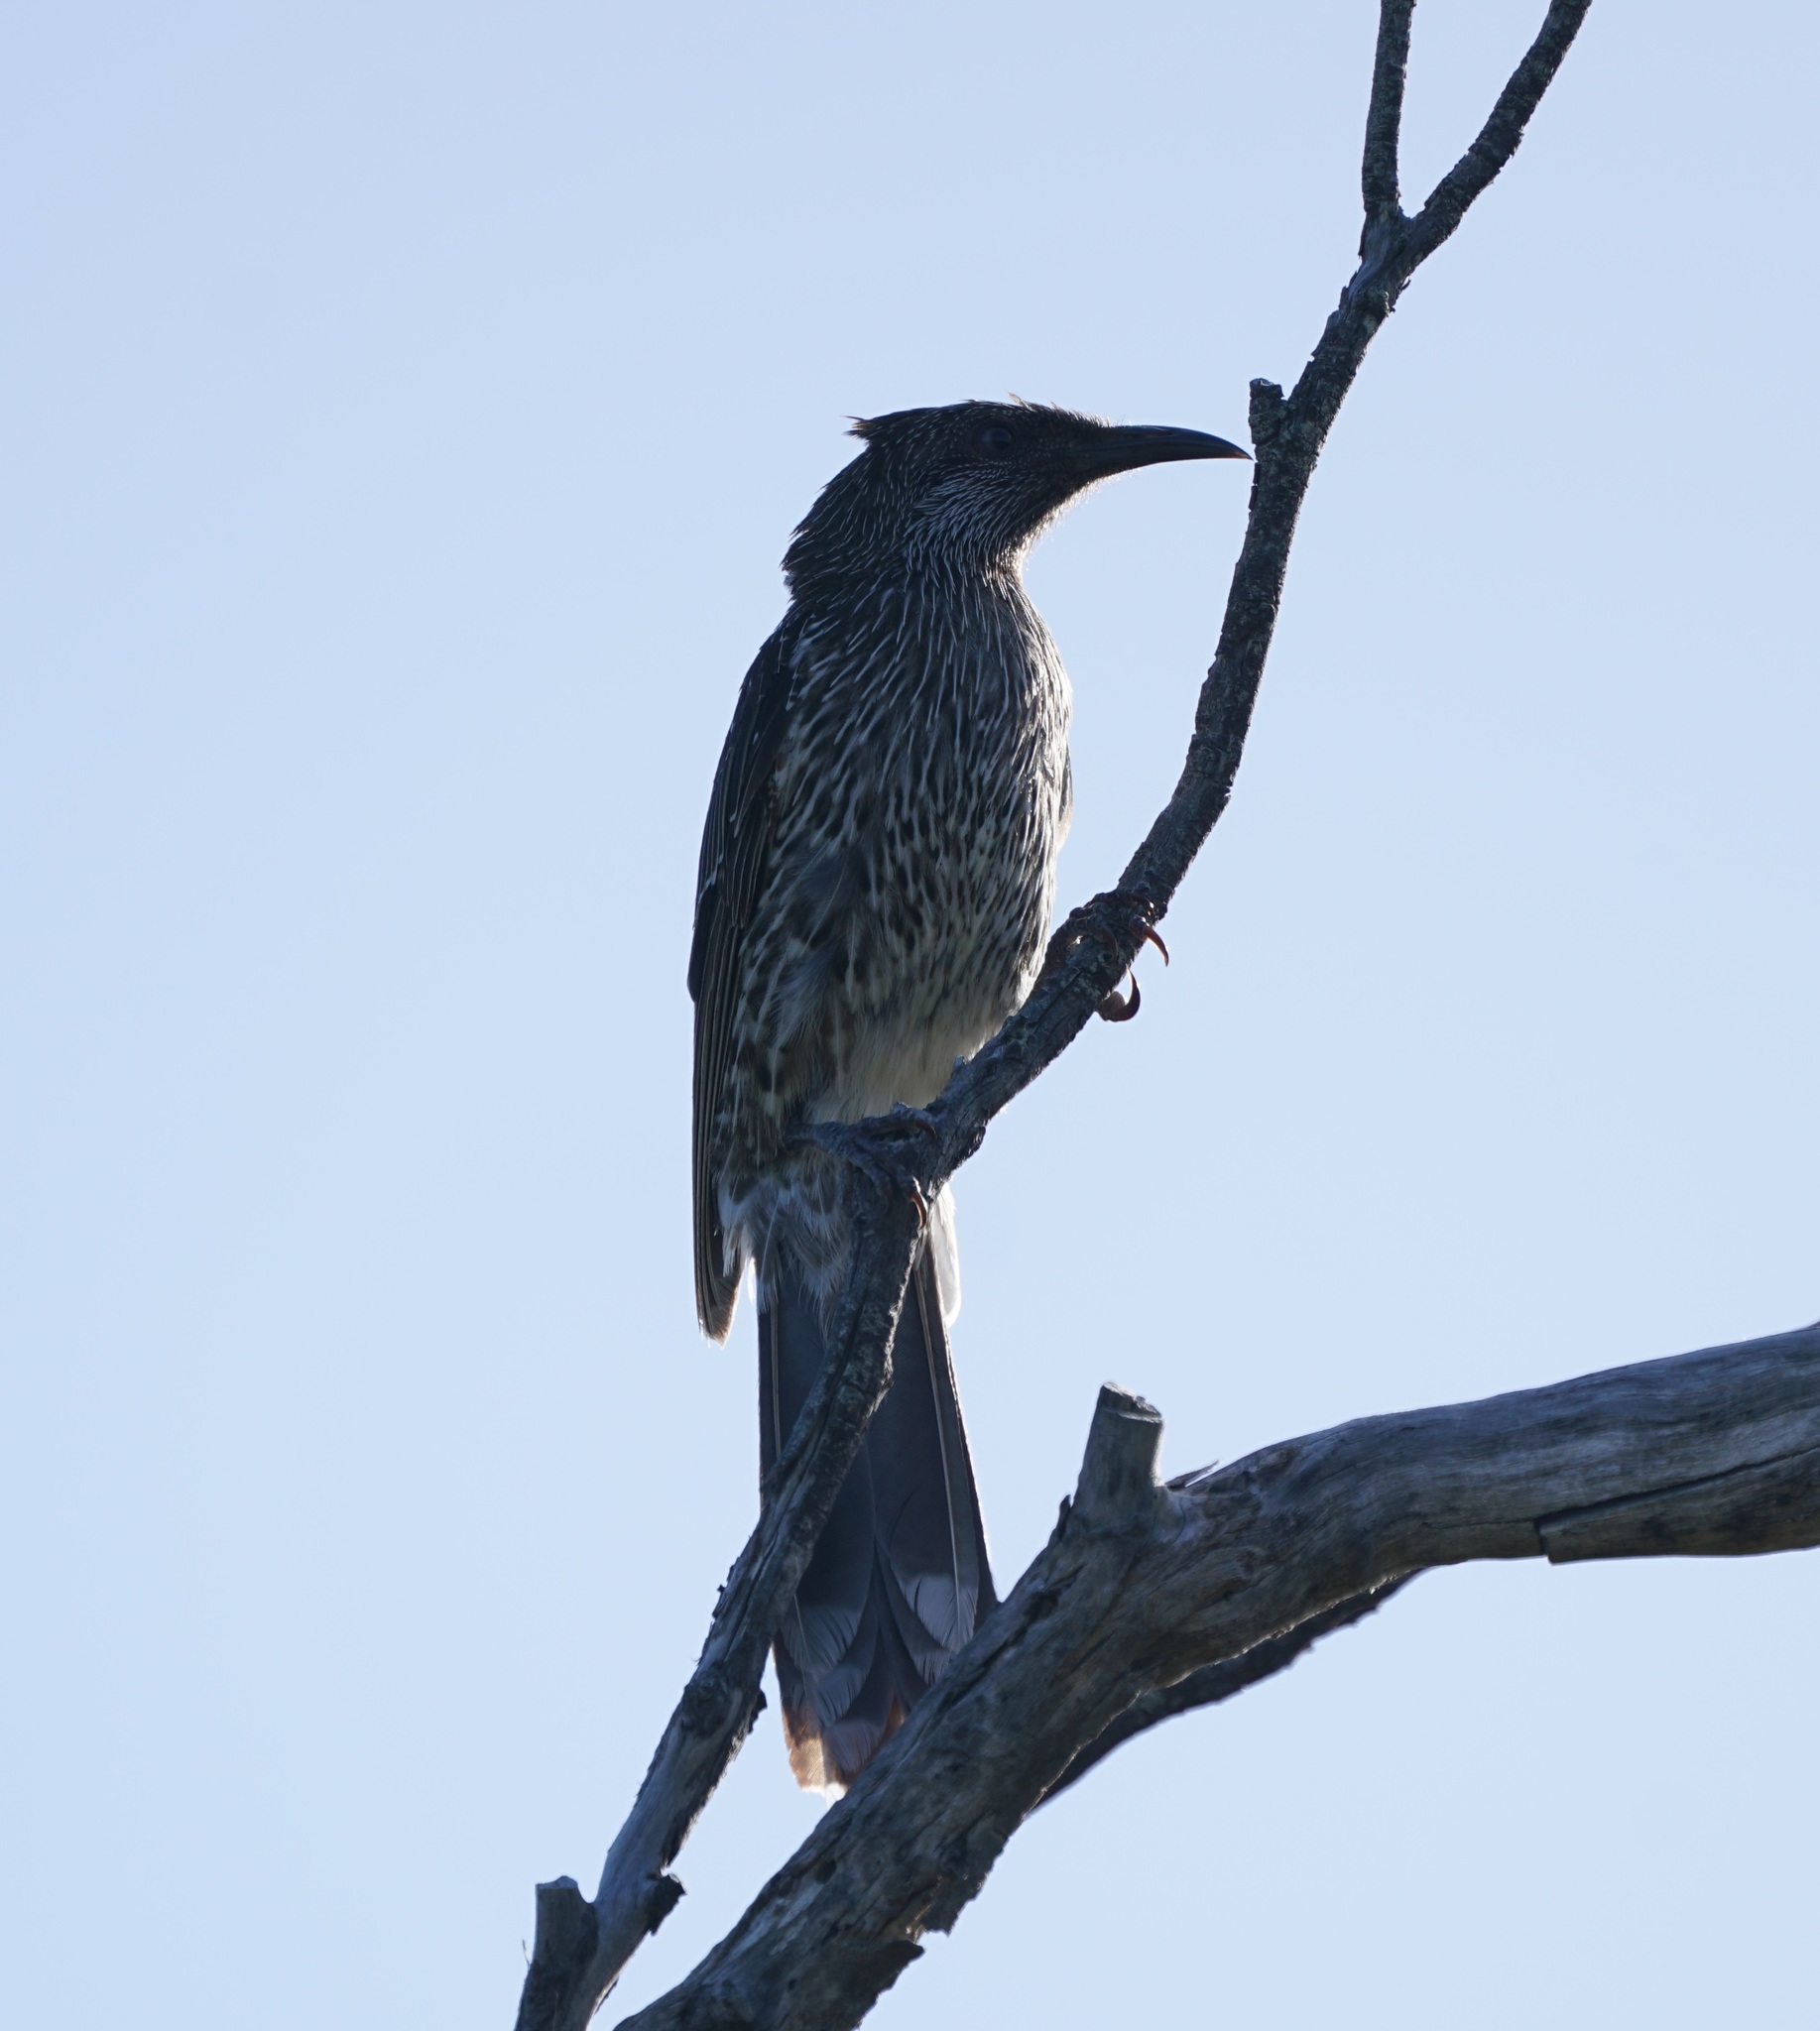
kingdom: Animalia
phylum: Chordata
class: Aves
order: Passeriformes
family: Meliphagidae
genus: Anthochaera
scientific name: Anthochaera chrysoptera
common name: Little wattlebird
